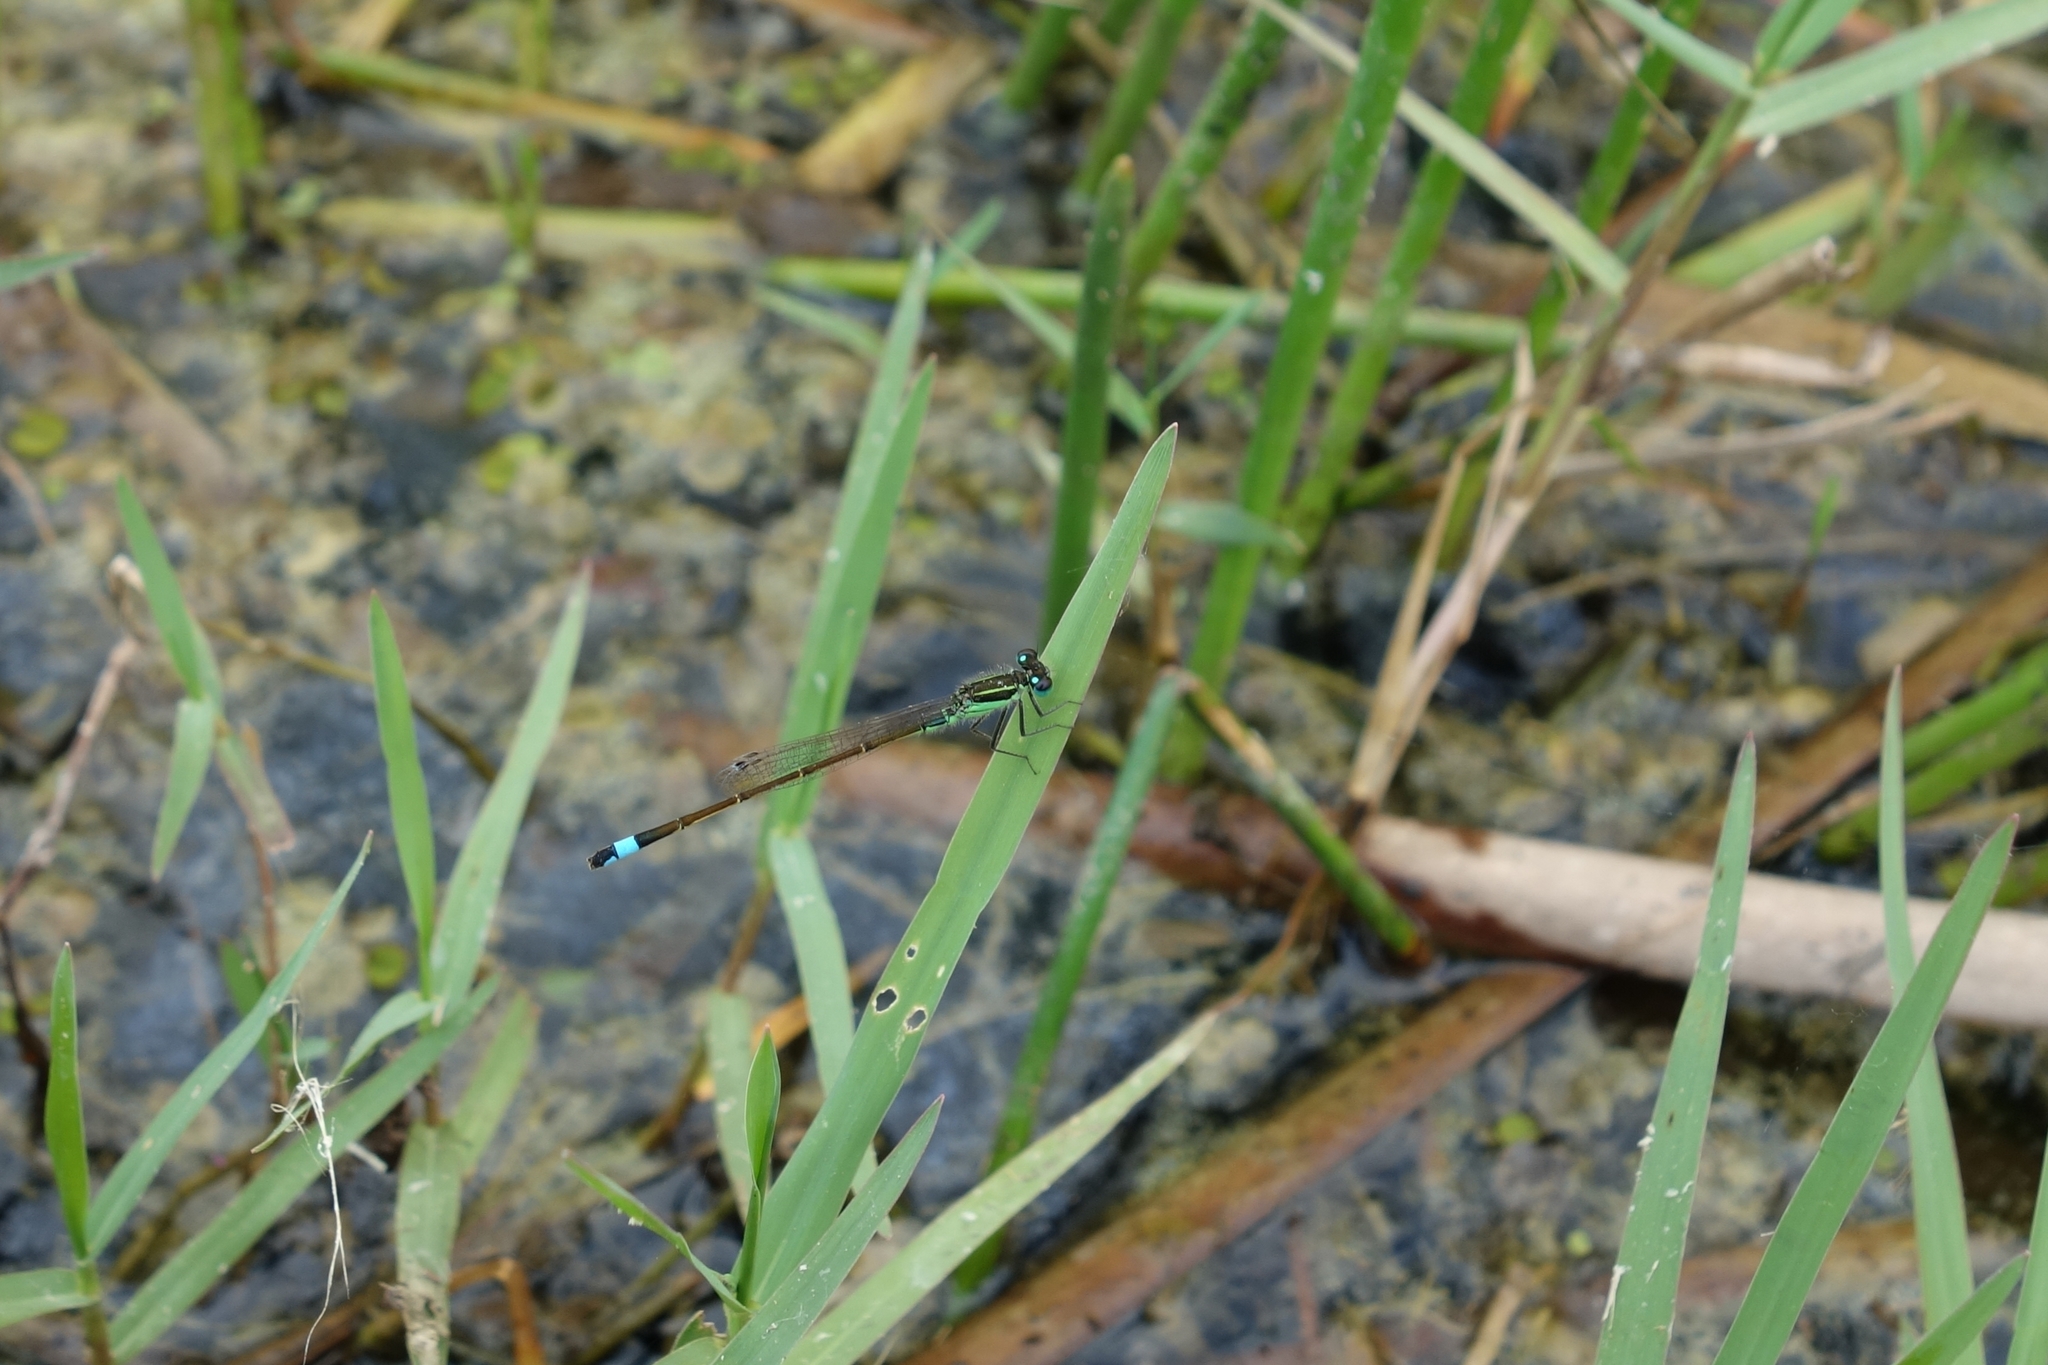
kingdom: Animalia
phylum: Arthropoda
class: Insecta
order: Odonata
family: Coenagrionidae
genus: Ischnura
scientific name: Ischnura ramburii
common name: Rambur's forktail
